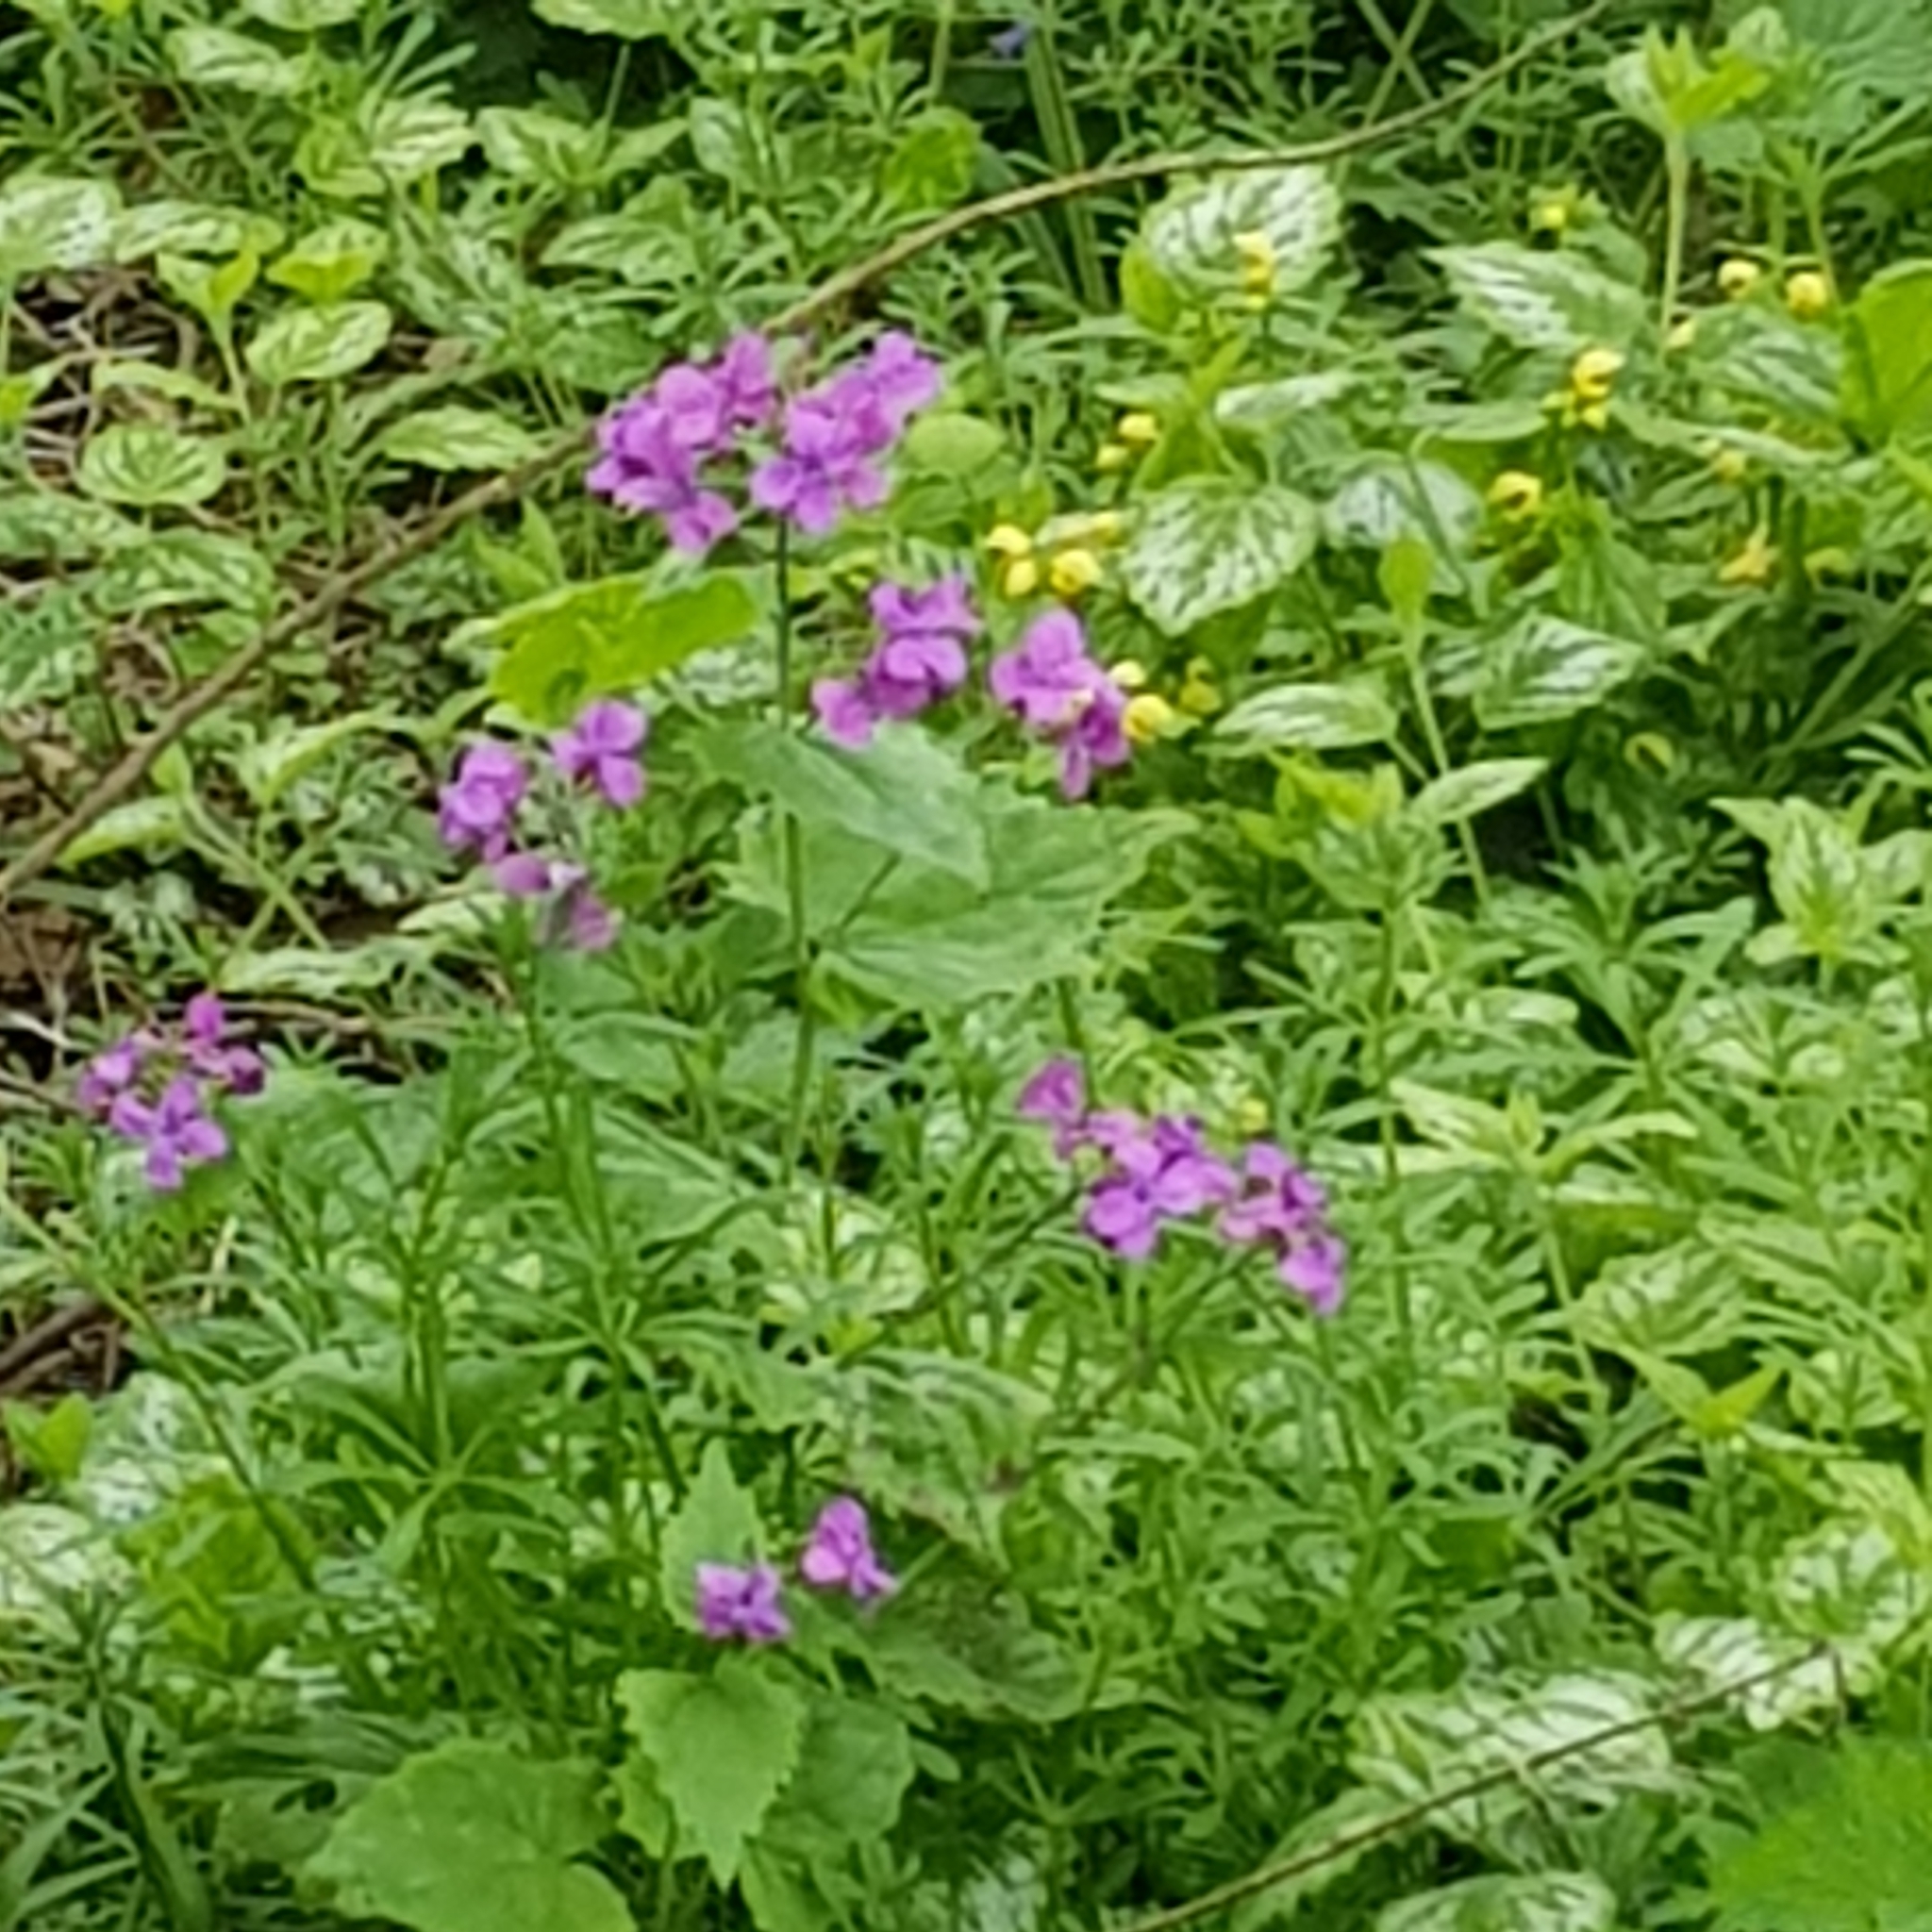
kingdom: Plantae
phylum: Tracheophyta
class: Magnoliopsida
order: Brassicales
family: Brassicaceae
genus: Lunaria
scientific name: Lunaria annua
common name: Honesty
